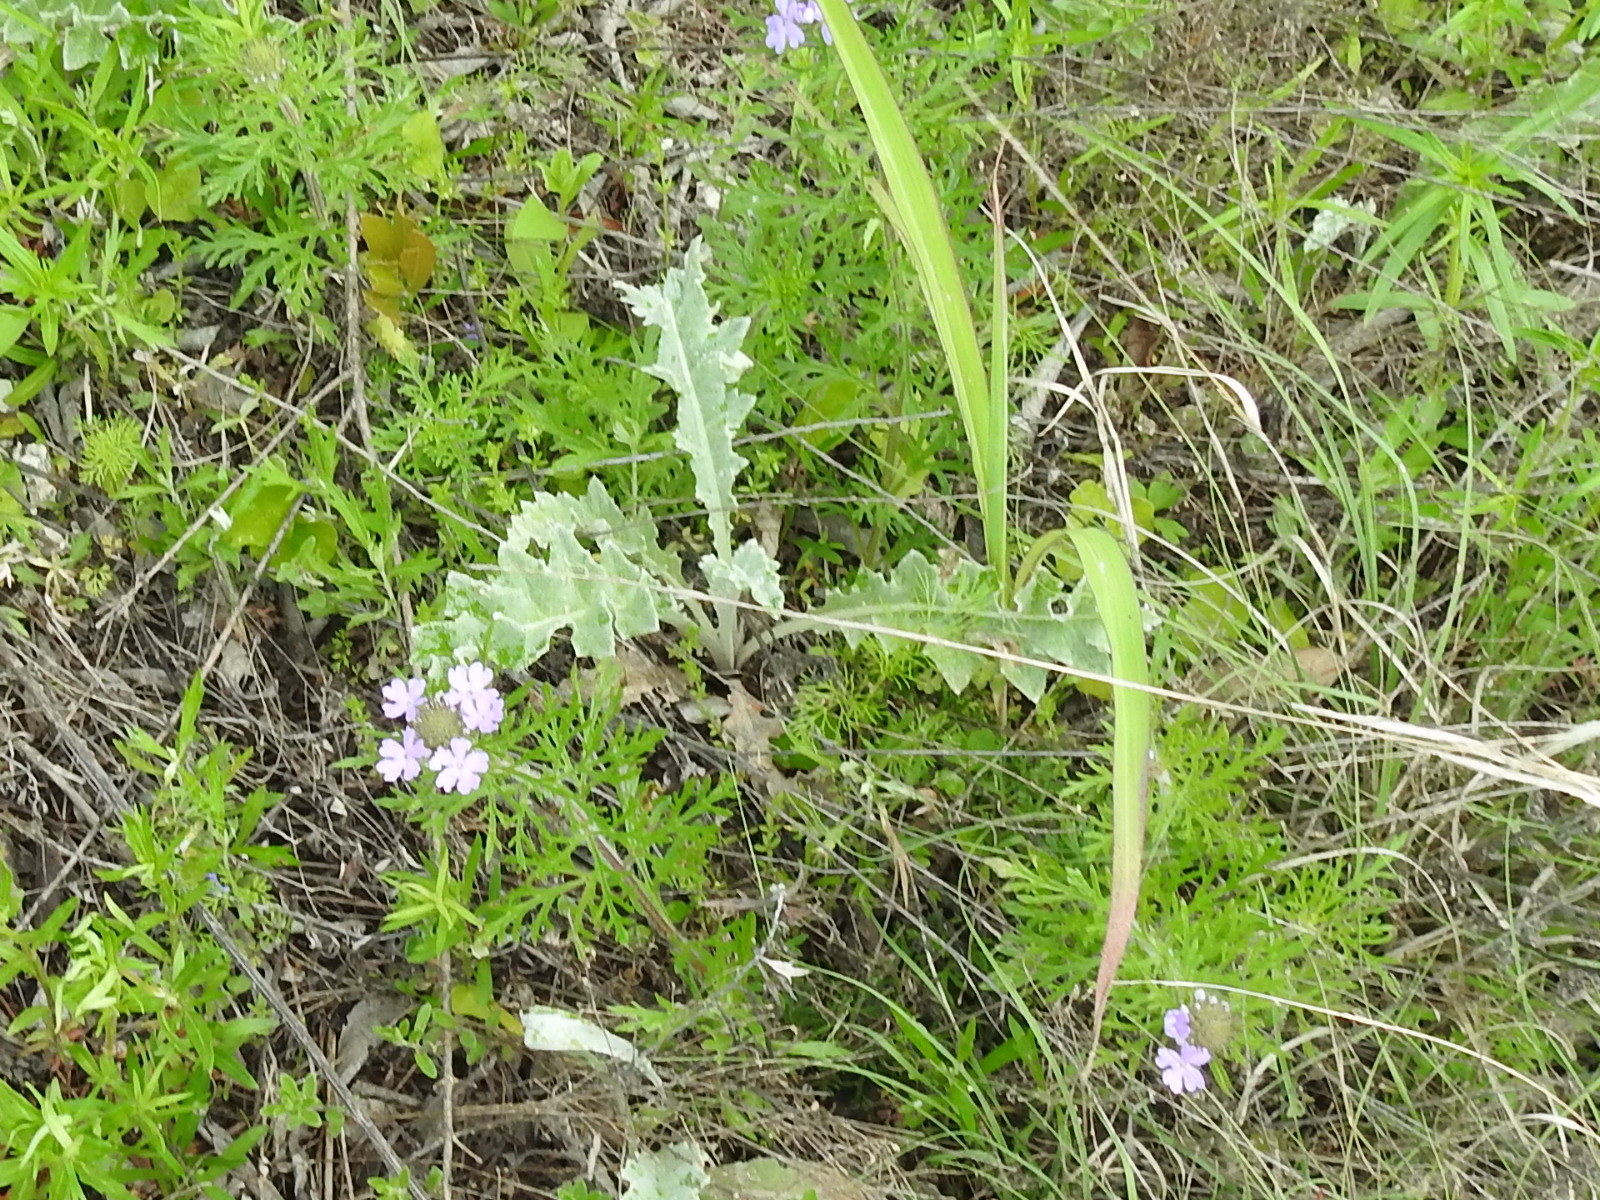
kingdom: Plantae
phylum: Tracheophyta
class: Magnoliopsida
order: Lamiales
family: Verbenaceae
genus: Verbena
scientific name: Verbena bipinnatifida
